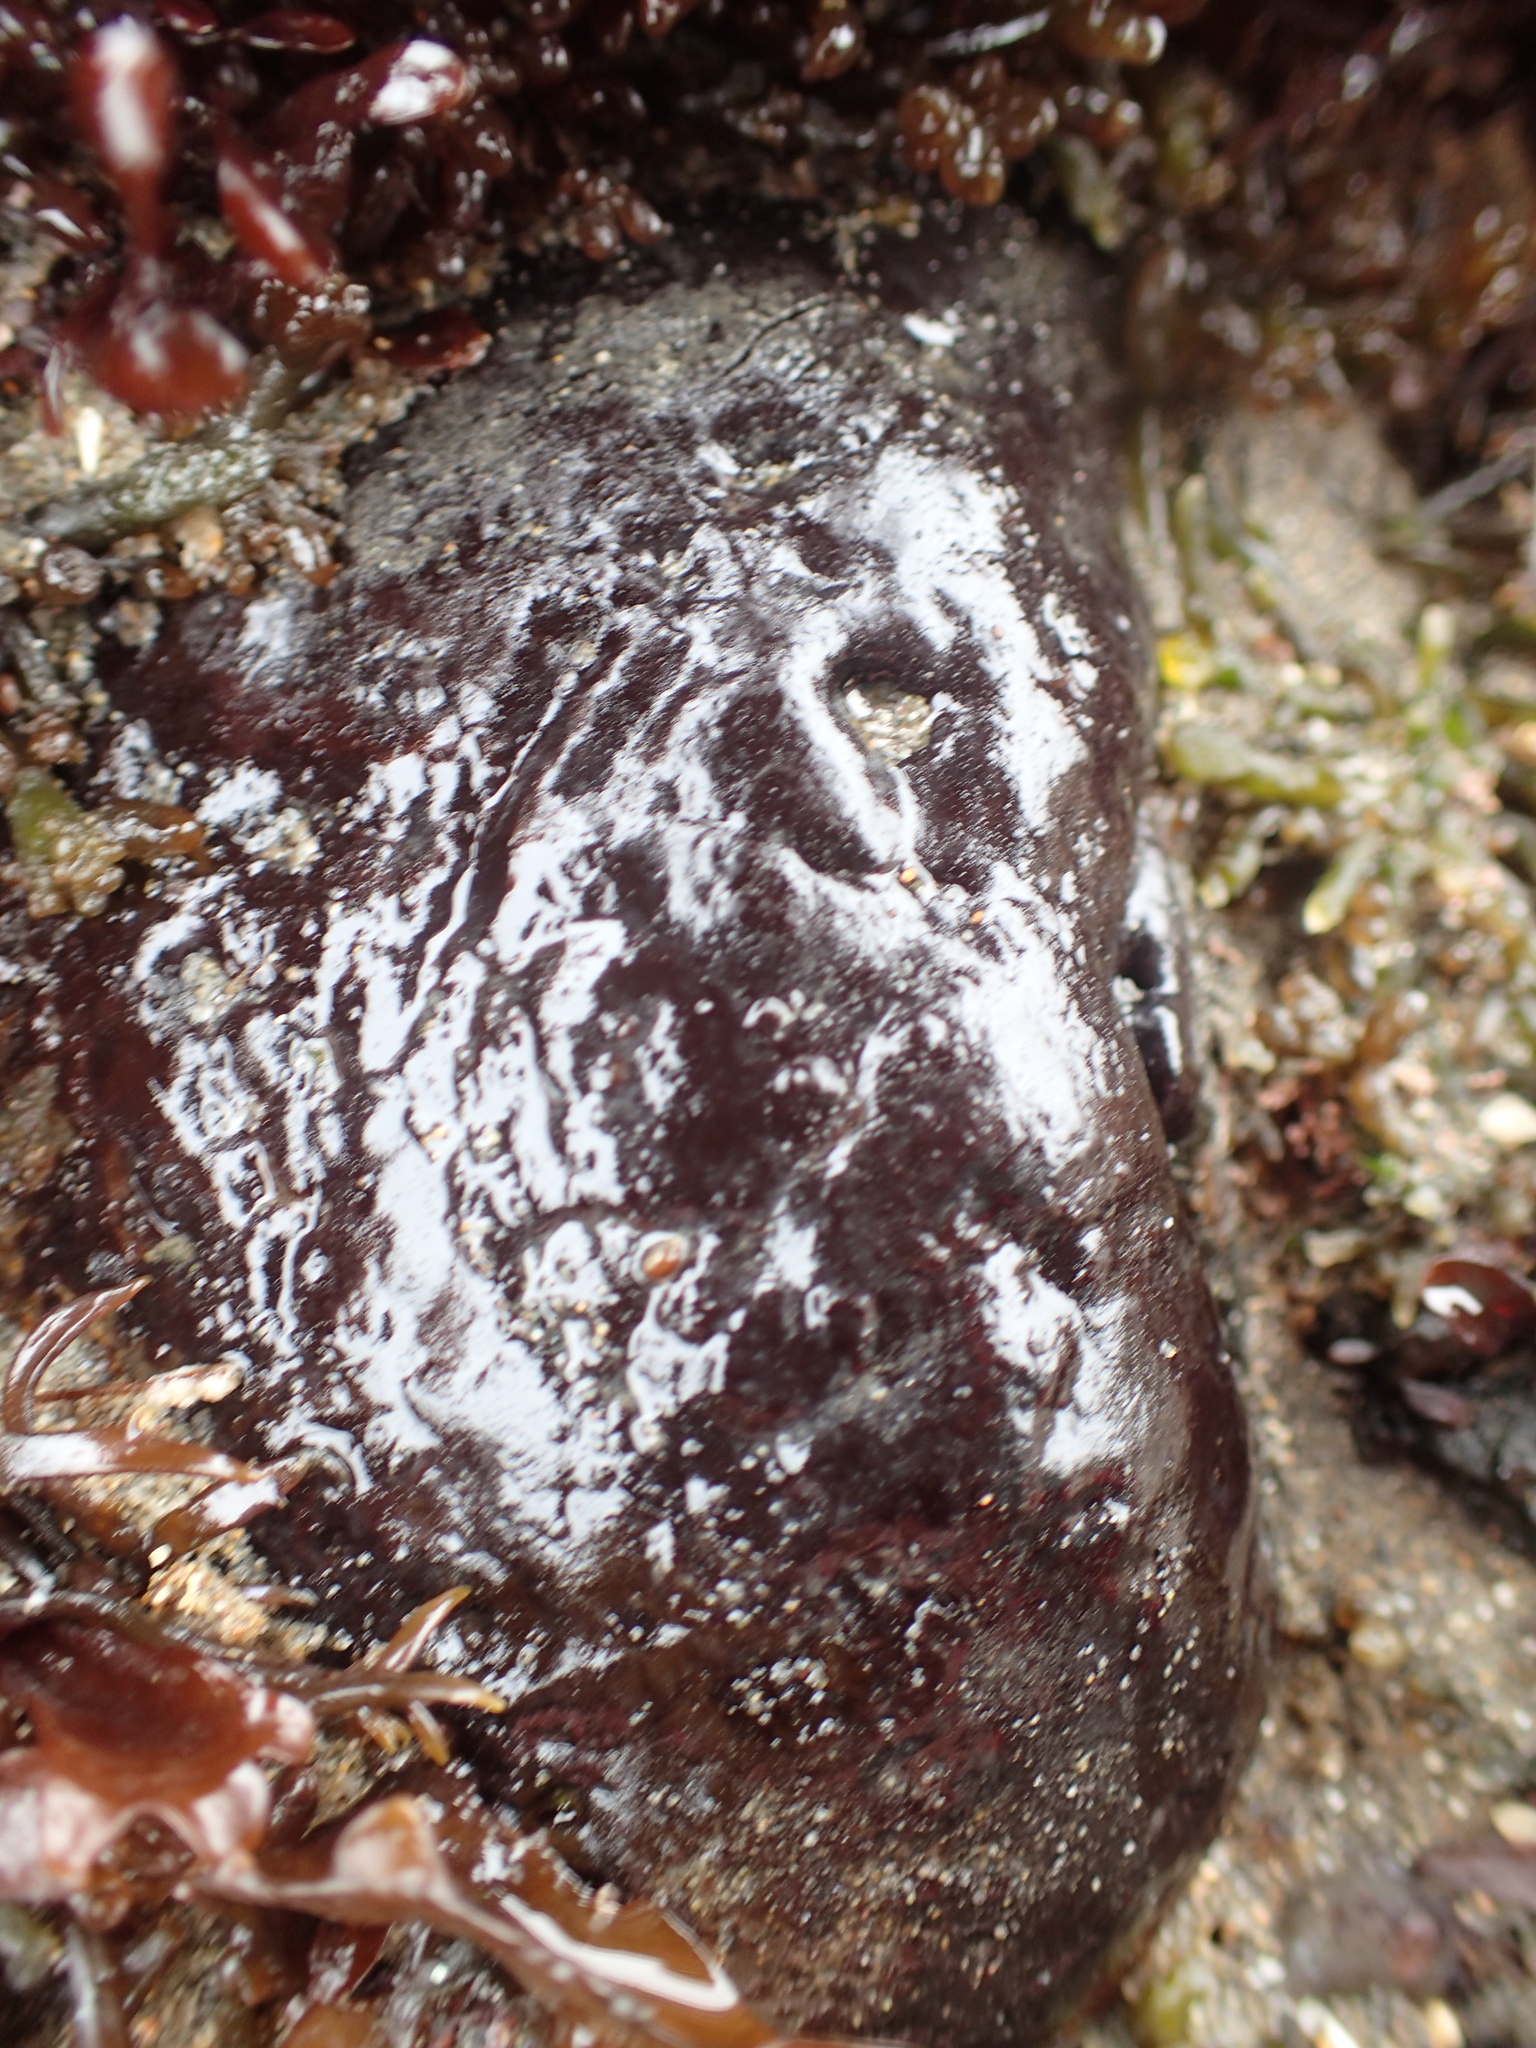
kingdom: Plantae
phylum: Rhodophyta
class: Florideophyceae
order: Gigartinales
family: Phyllophoraceae
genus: Mastocarpus
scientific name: Mastocarpus papillatus
